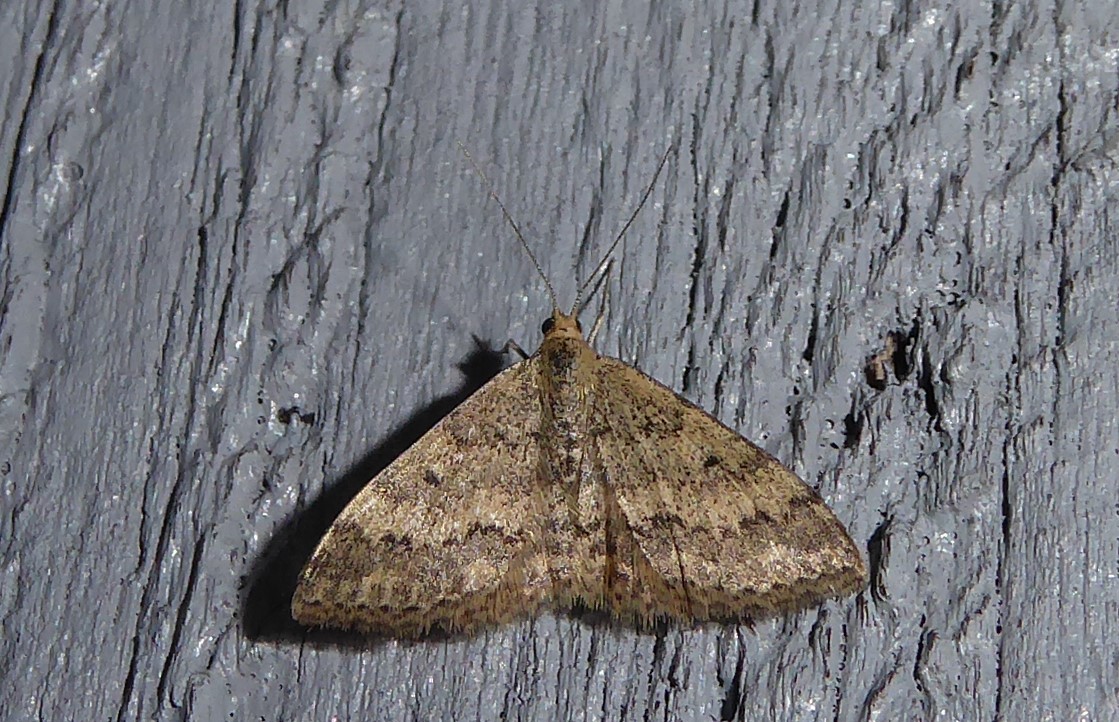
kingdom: Animalia
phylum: Arthropoda
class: Insecta
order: Lepidoptera
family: Geometridae
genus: Scopula
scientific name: Scopula rubraria
